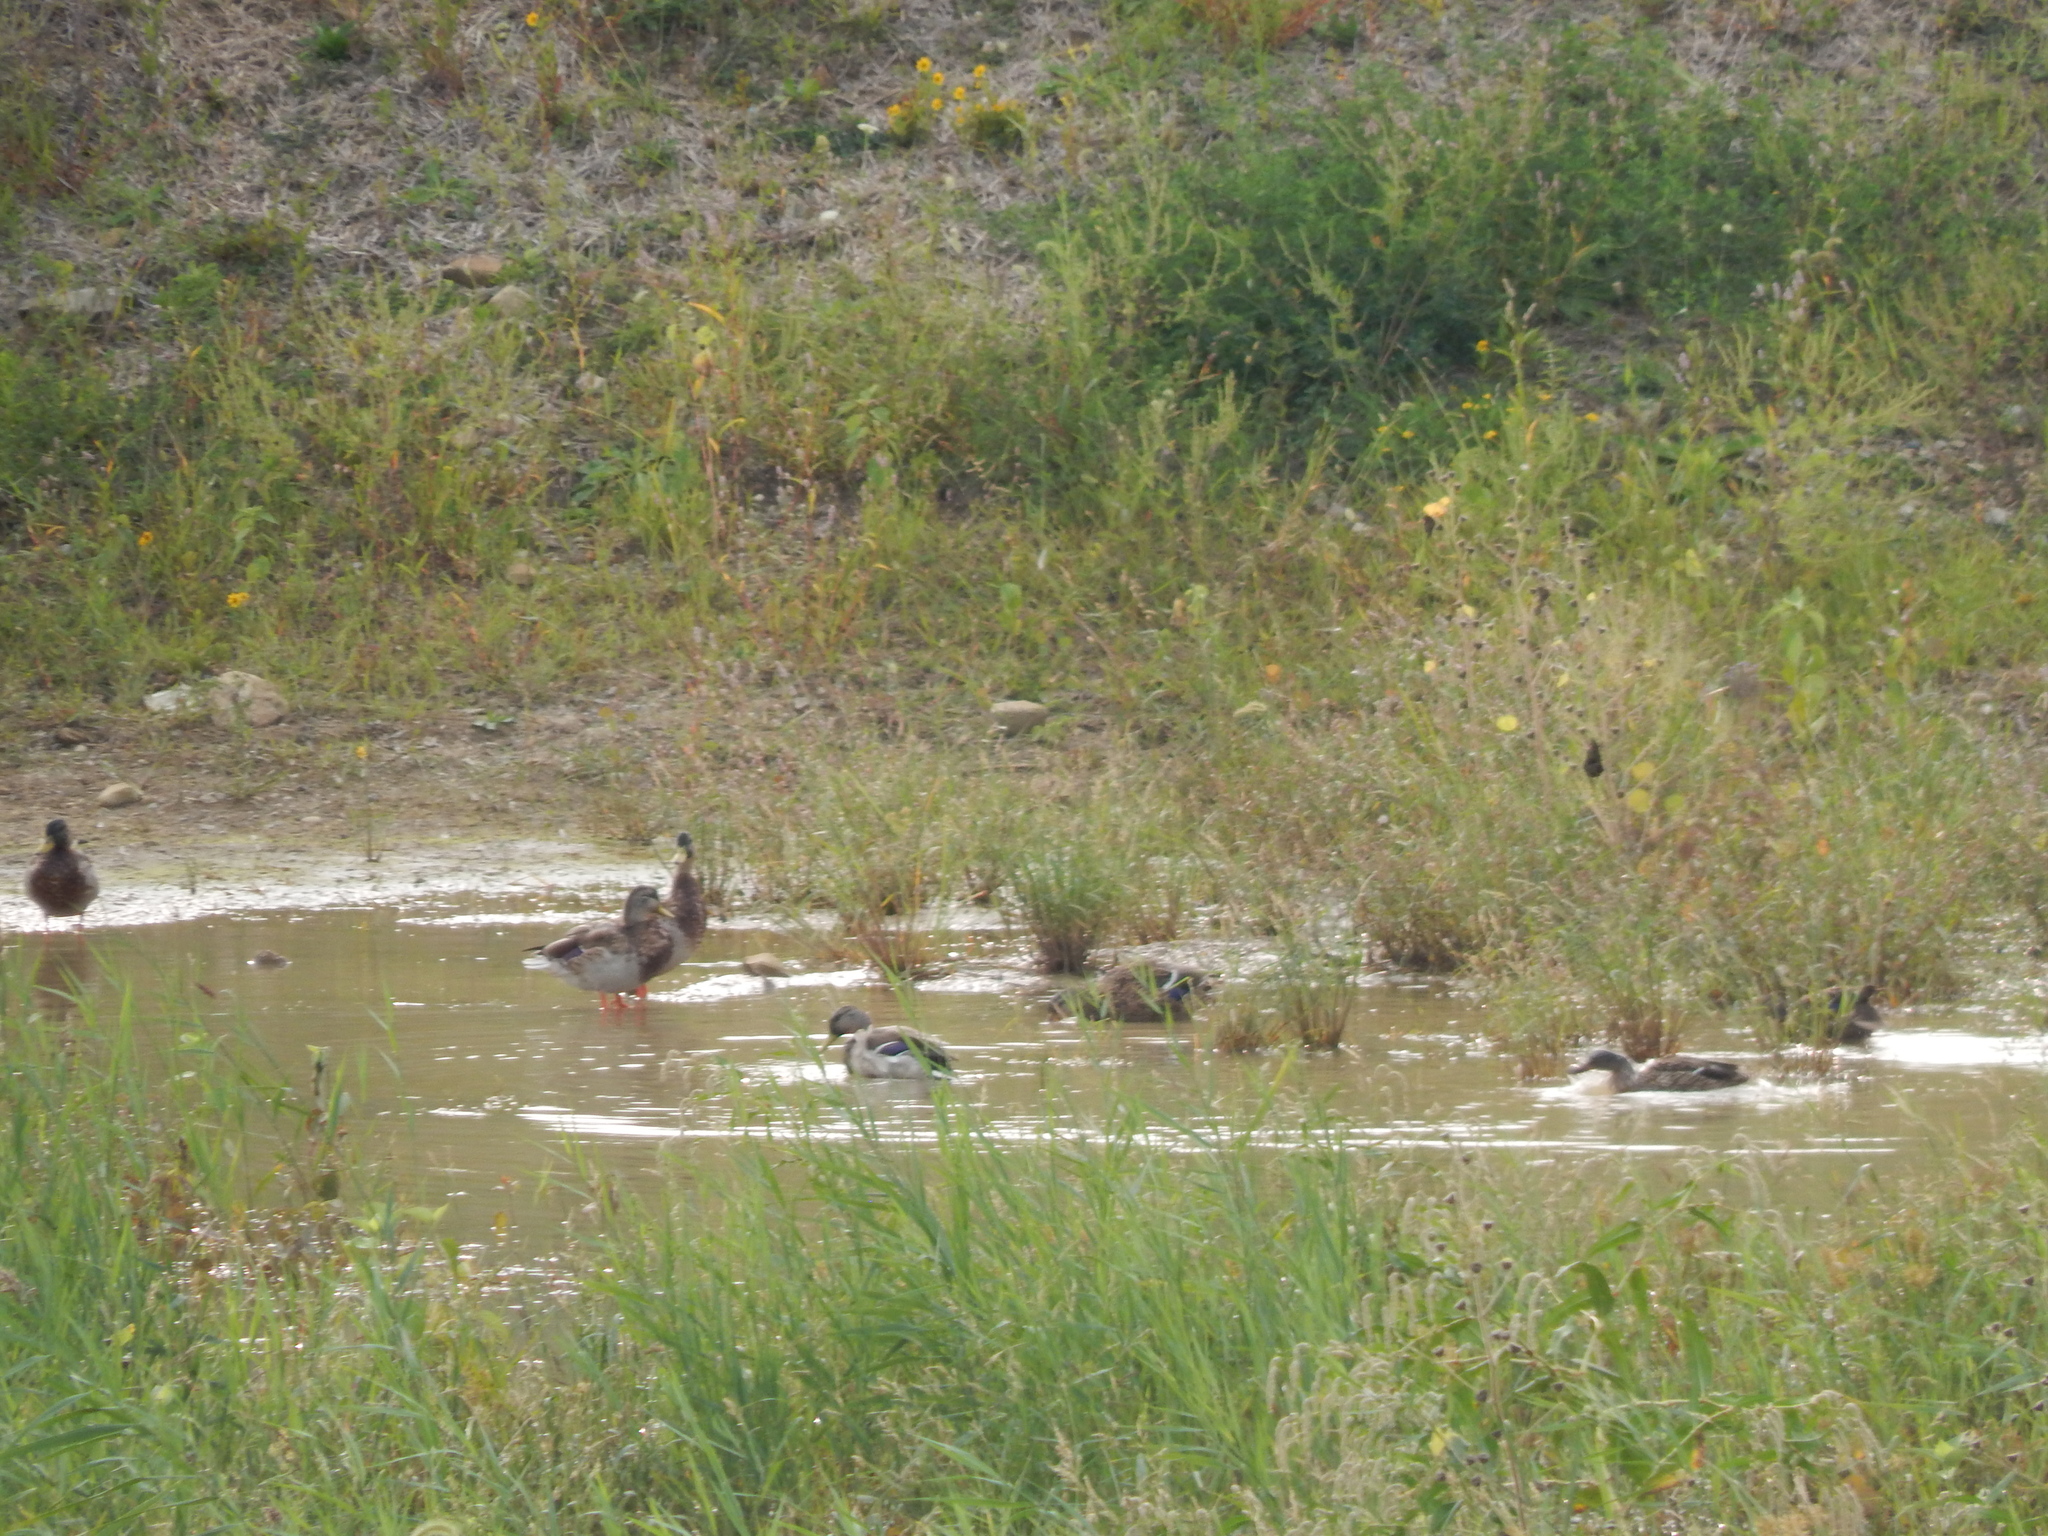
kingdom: Animalia
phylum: Chordata
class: Aves
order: Anseriformes
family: Anatidae
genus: Anas
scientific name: Anas platyrhynchos
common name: Mallard
